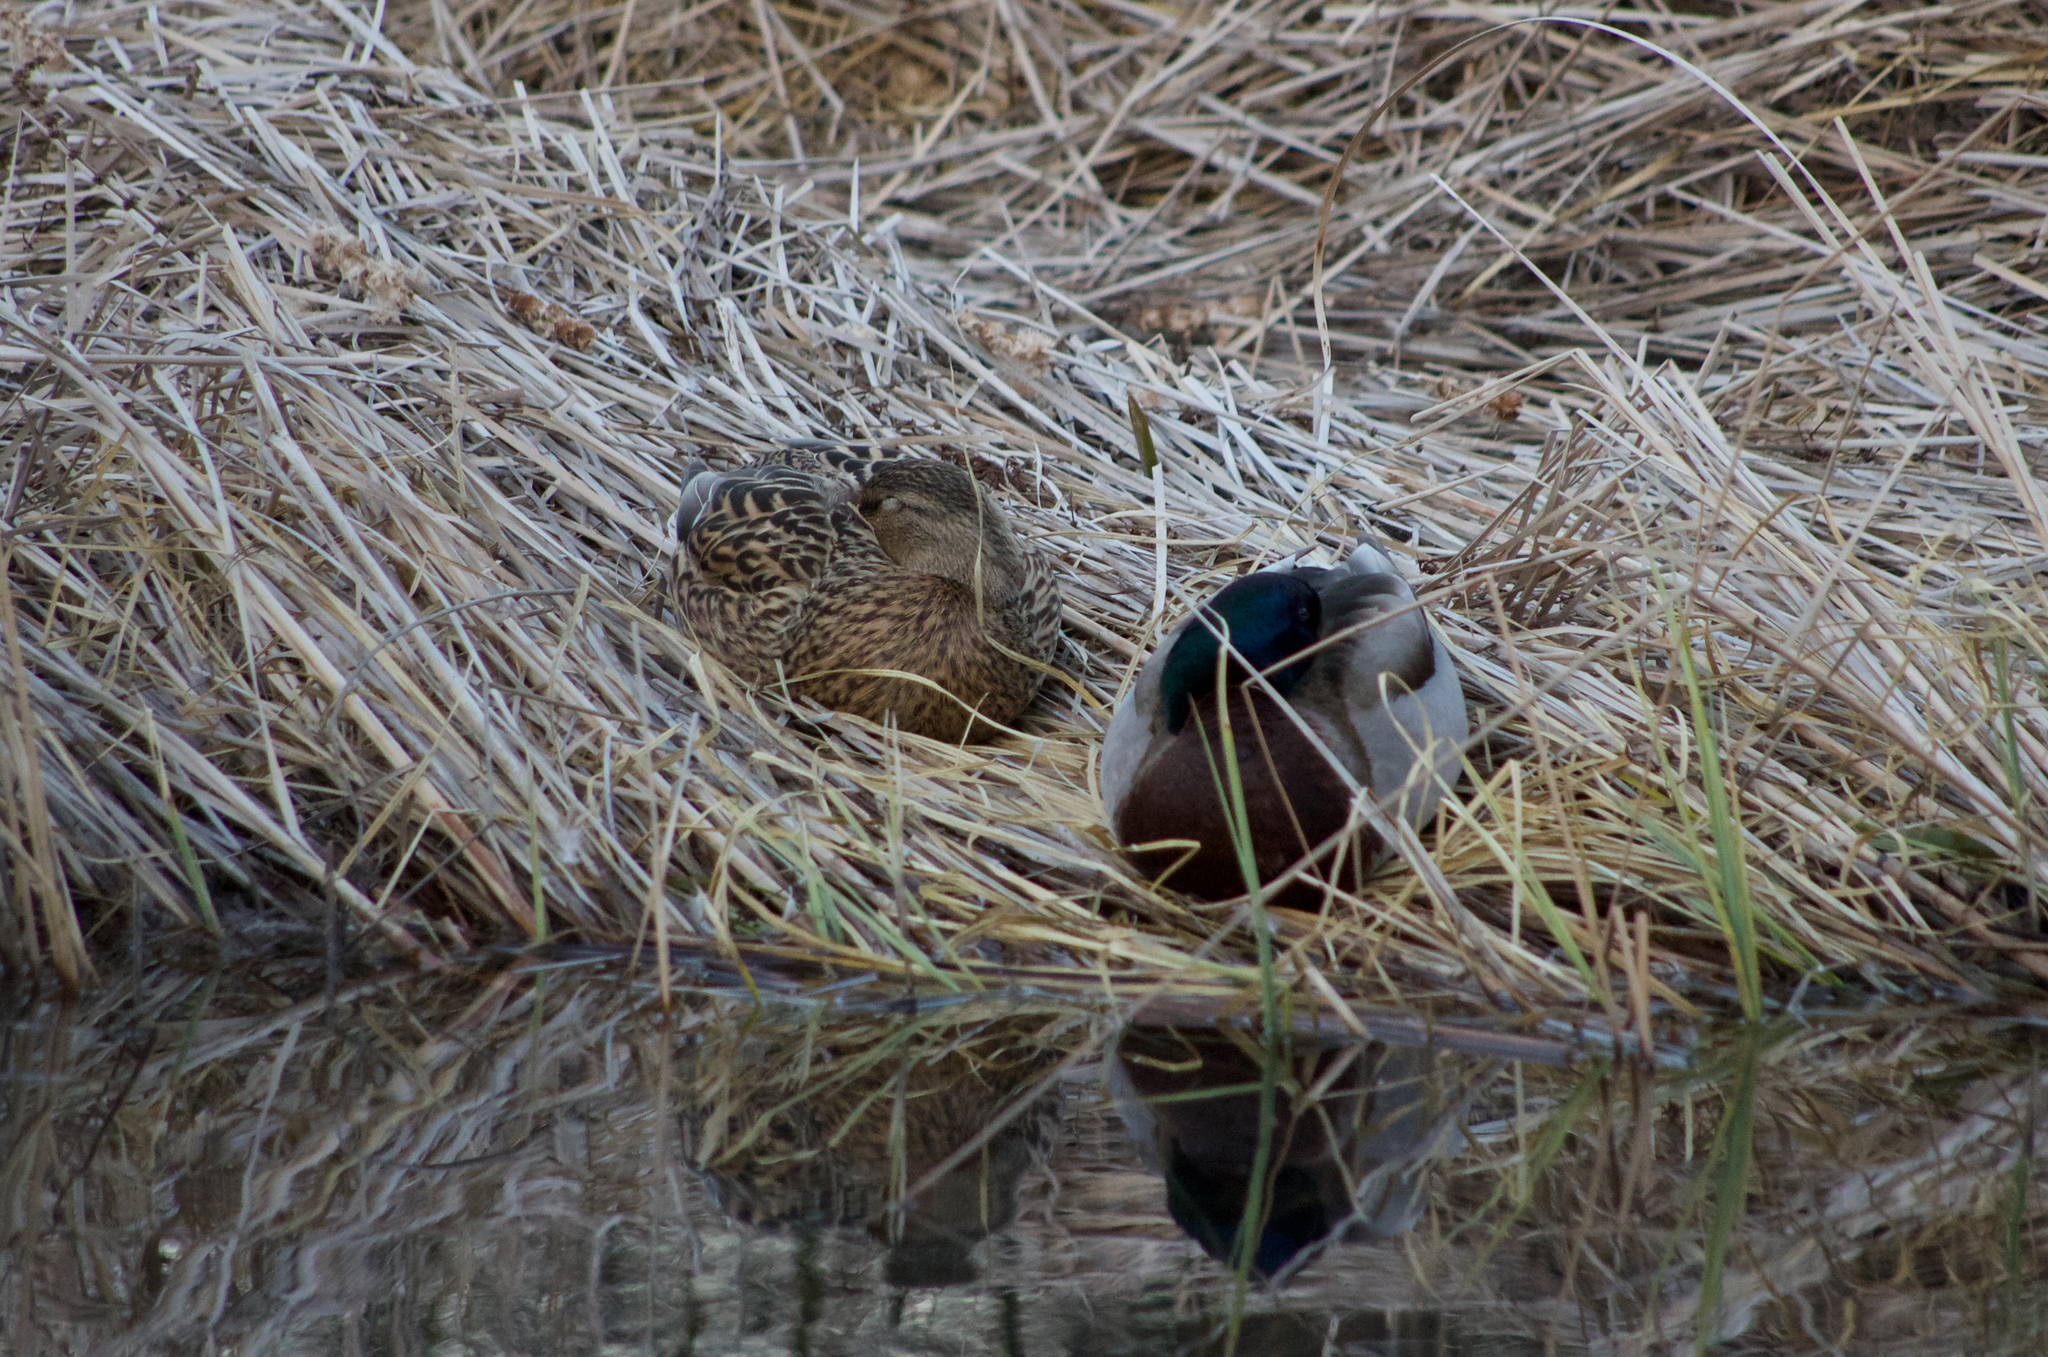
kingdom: Animalia
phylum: Chordata
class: Aves
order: Anseriformes
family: Anatidae
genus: Anas
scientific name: Anas platyrhynchos
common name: Mallard
